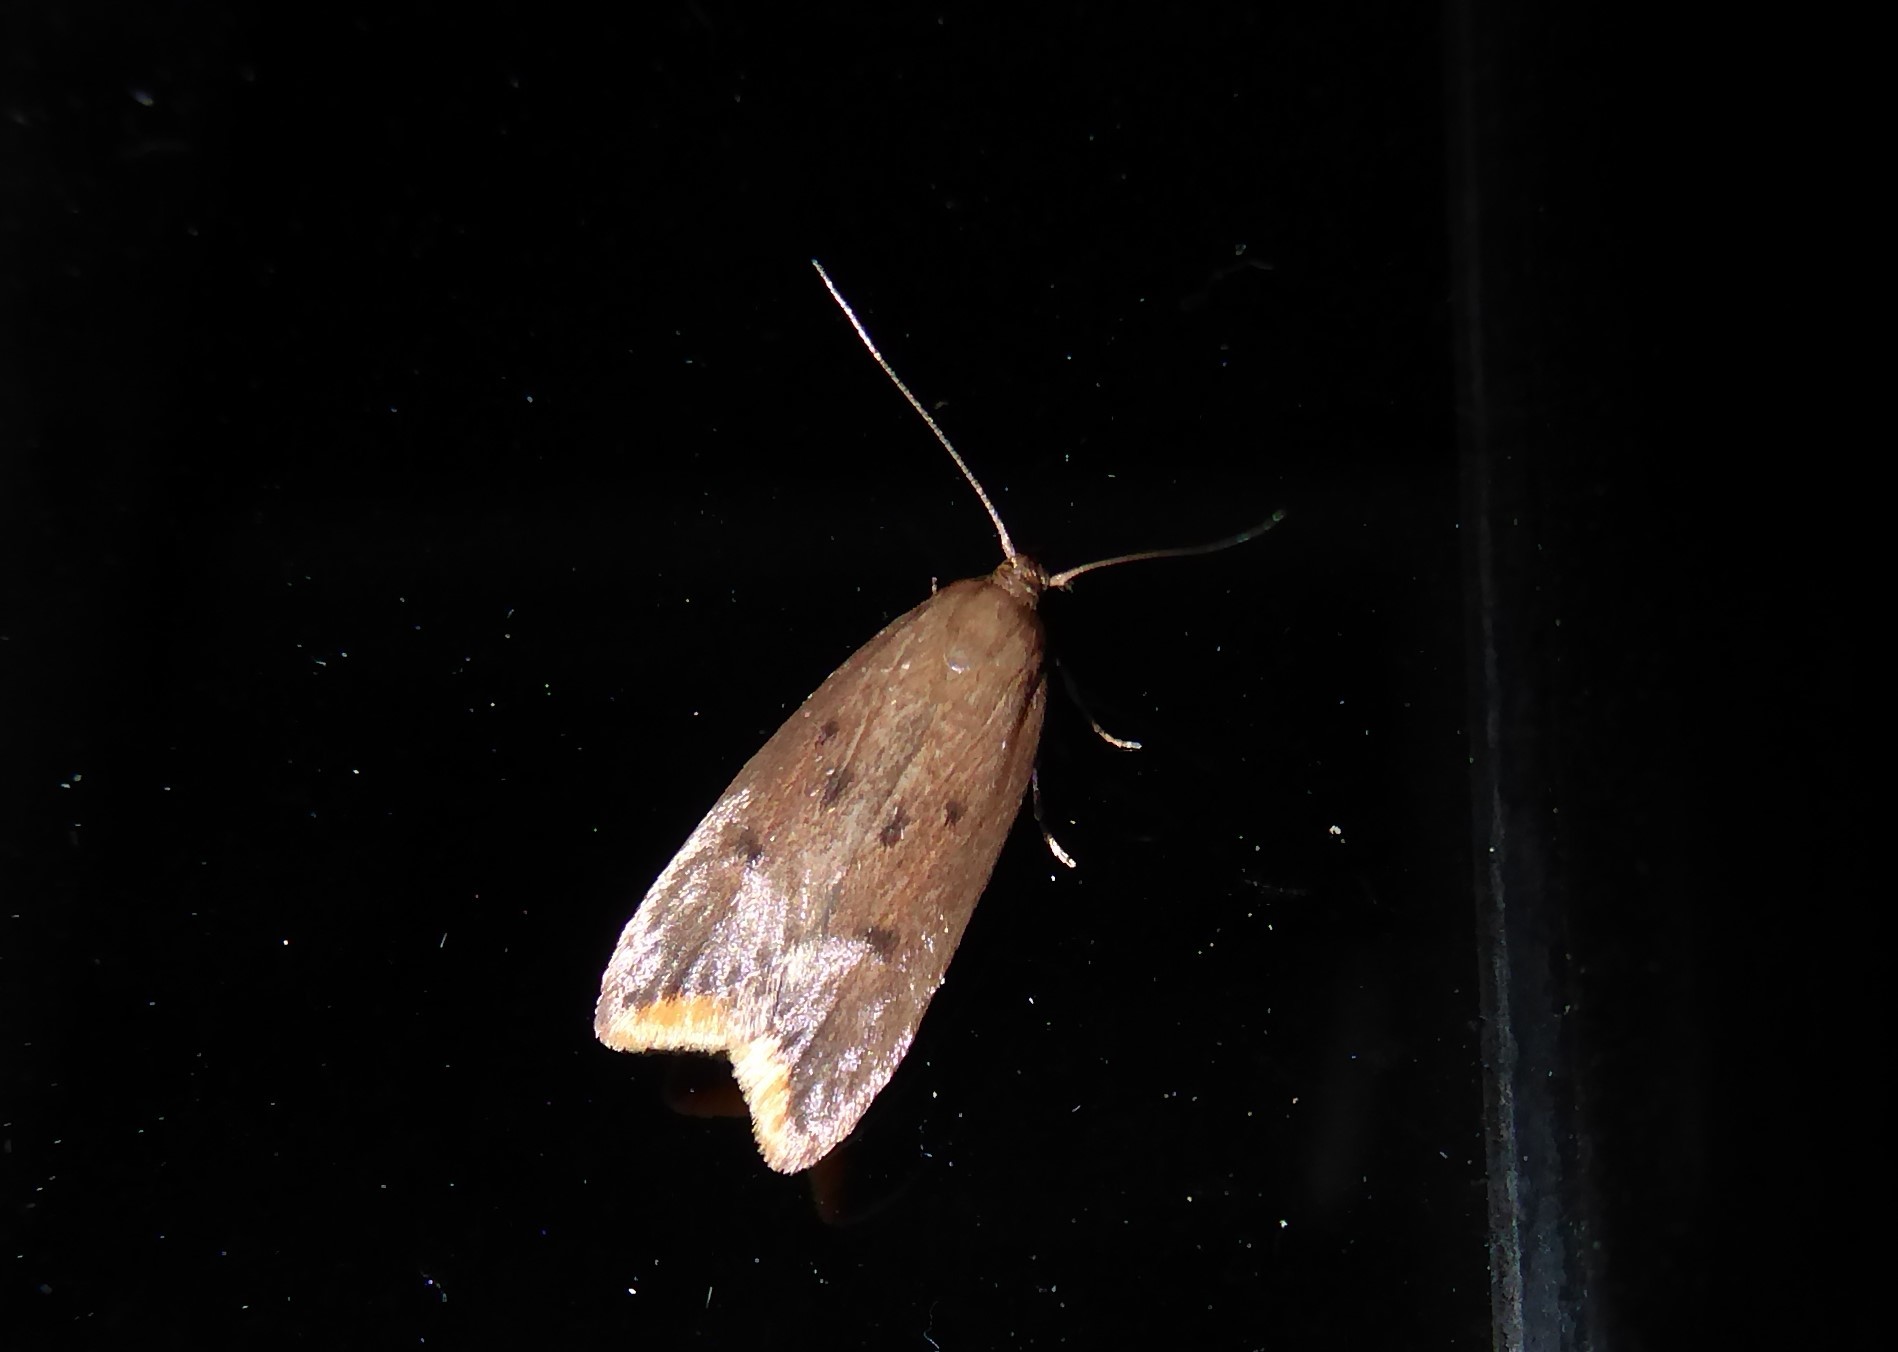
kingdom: Animalia
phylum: Arthropoda
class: Insecta
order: Lepidoptera
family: Oecophoridae
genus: Tachystola
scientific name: Tachystola acroxantha
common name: Ruddy streak
